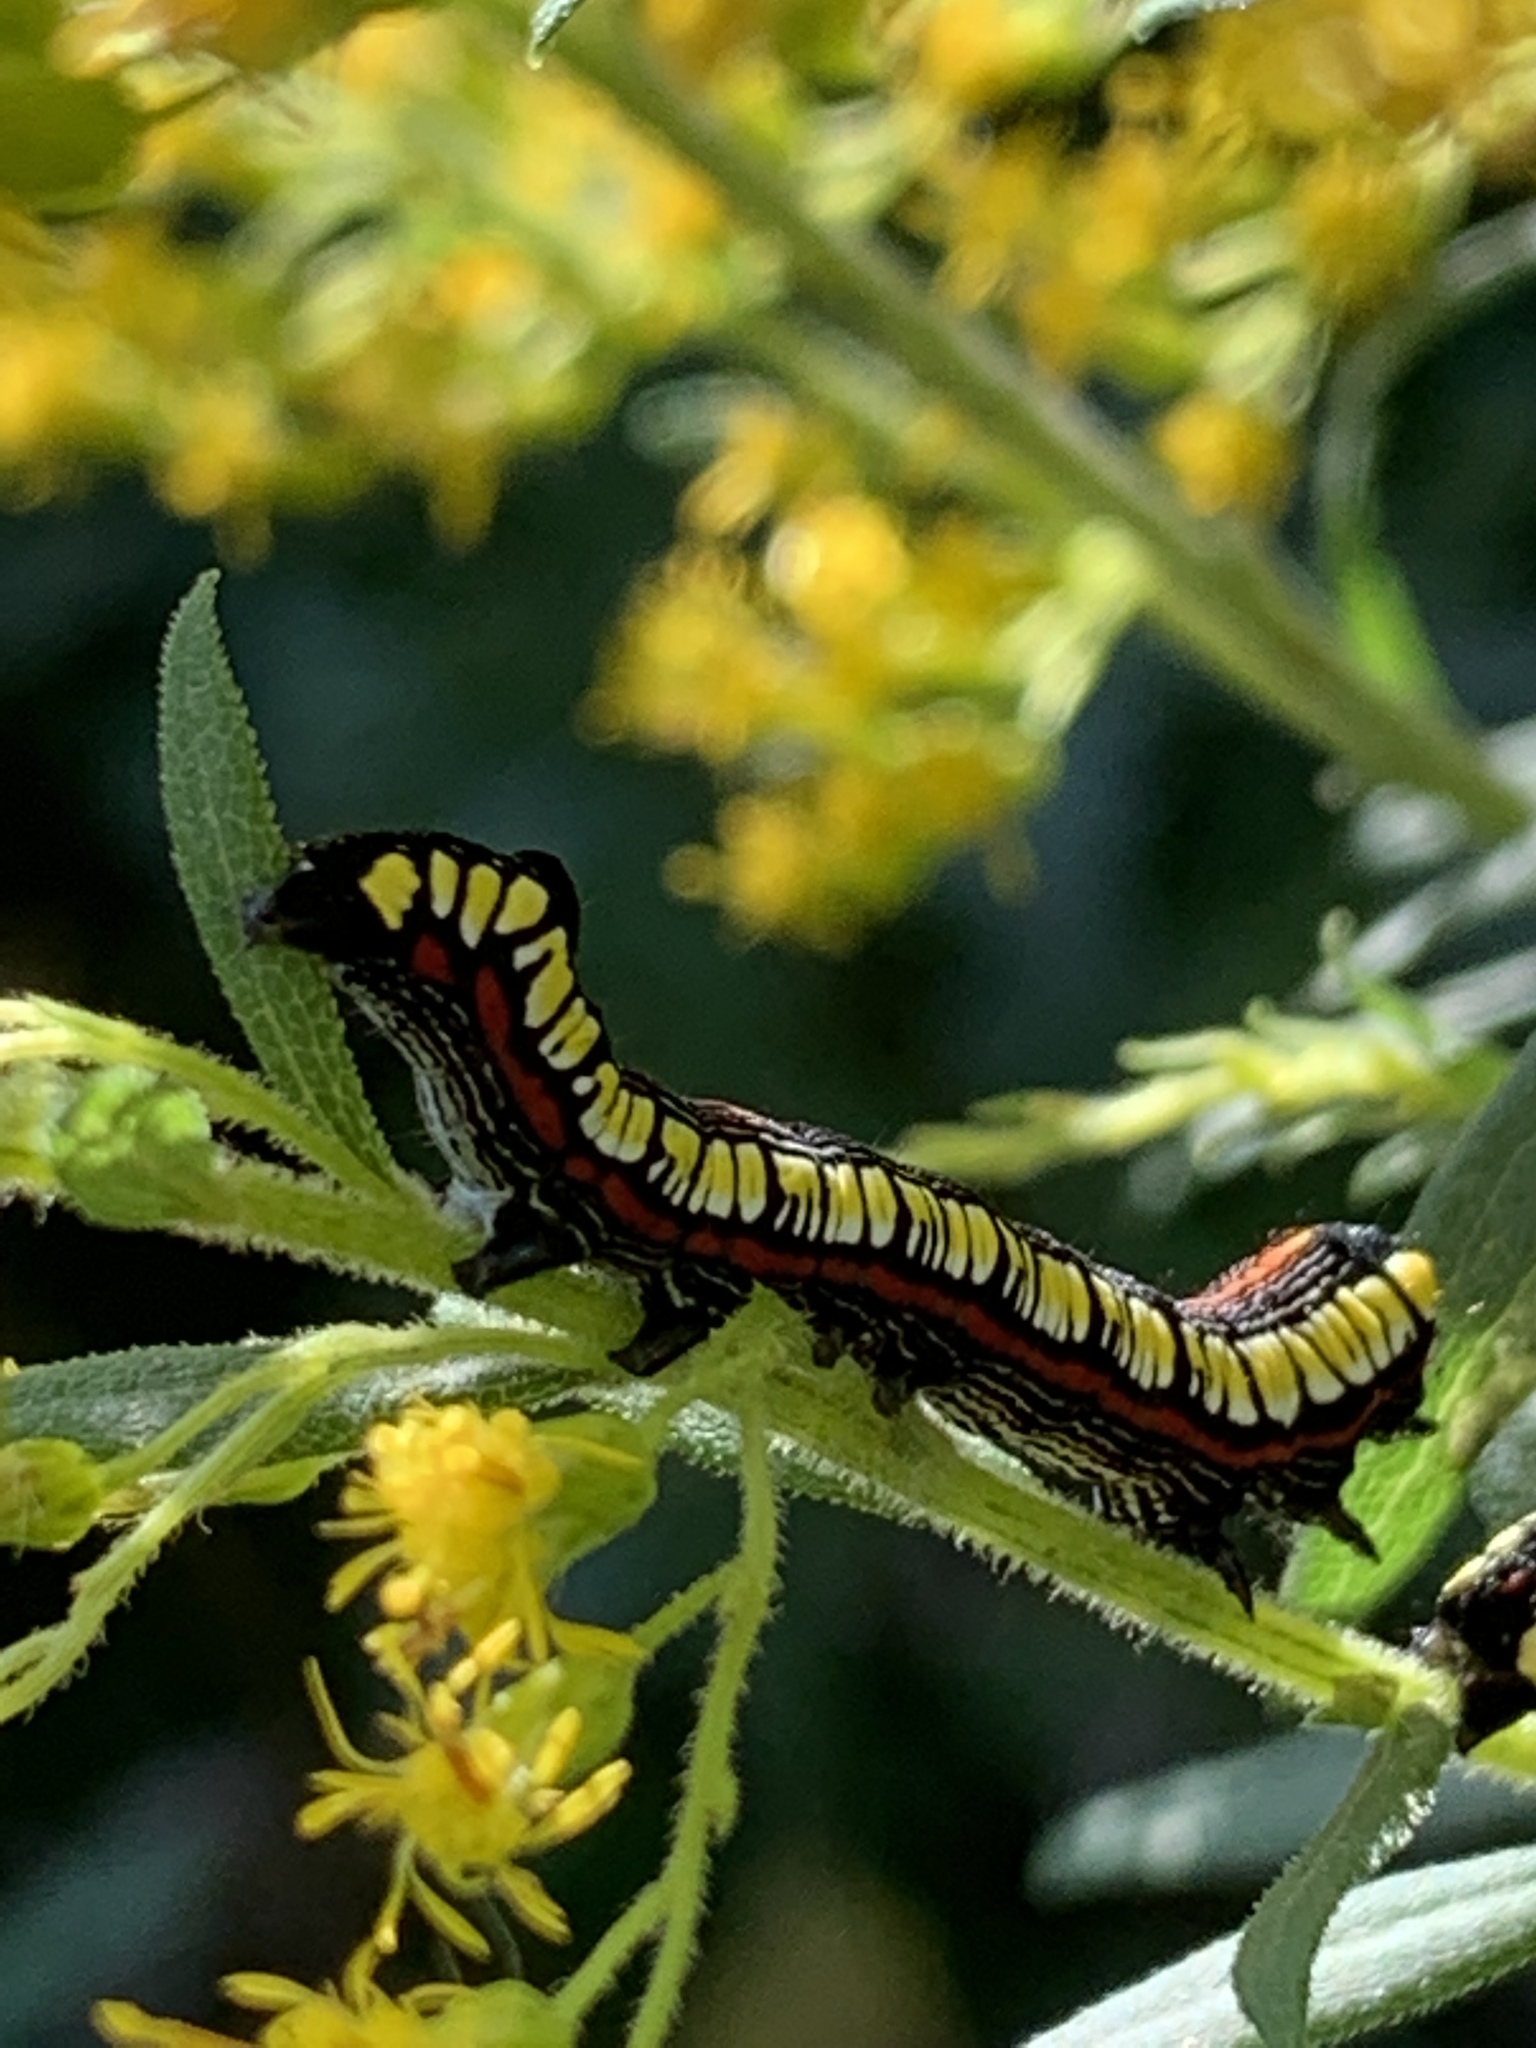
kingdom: Animalia
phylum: Arthropoda
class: Insecta
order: Lepidoptera
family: Noctuidae
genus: Cucullia
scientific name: Cucullia convexipennis
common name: Brown-hooded owlet
